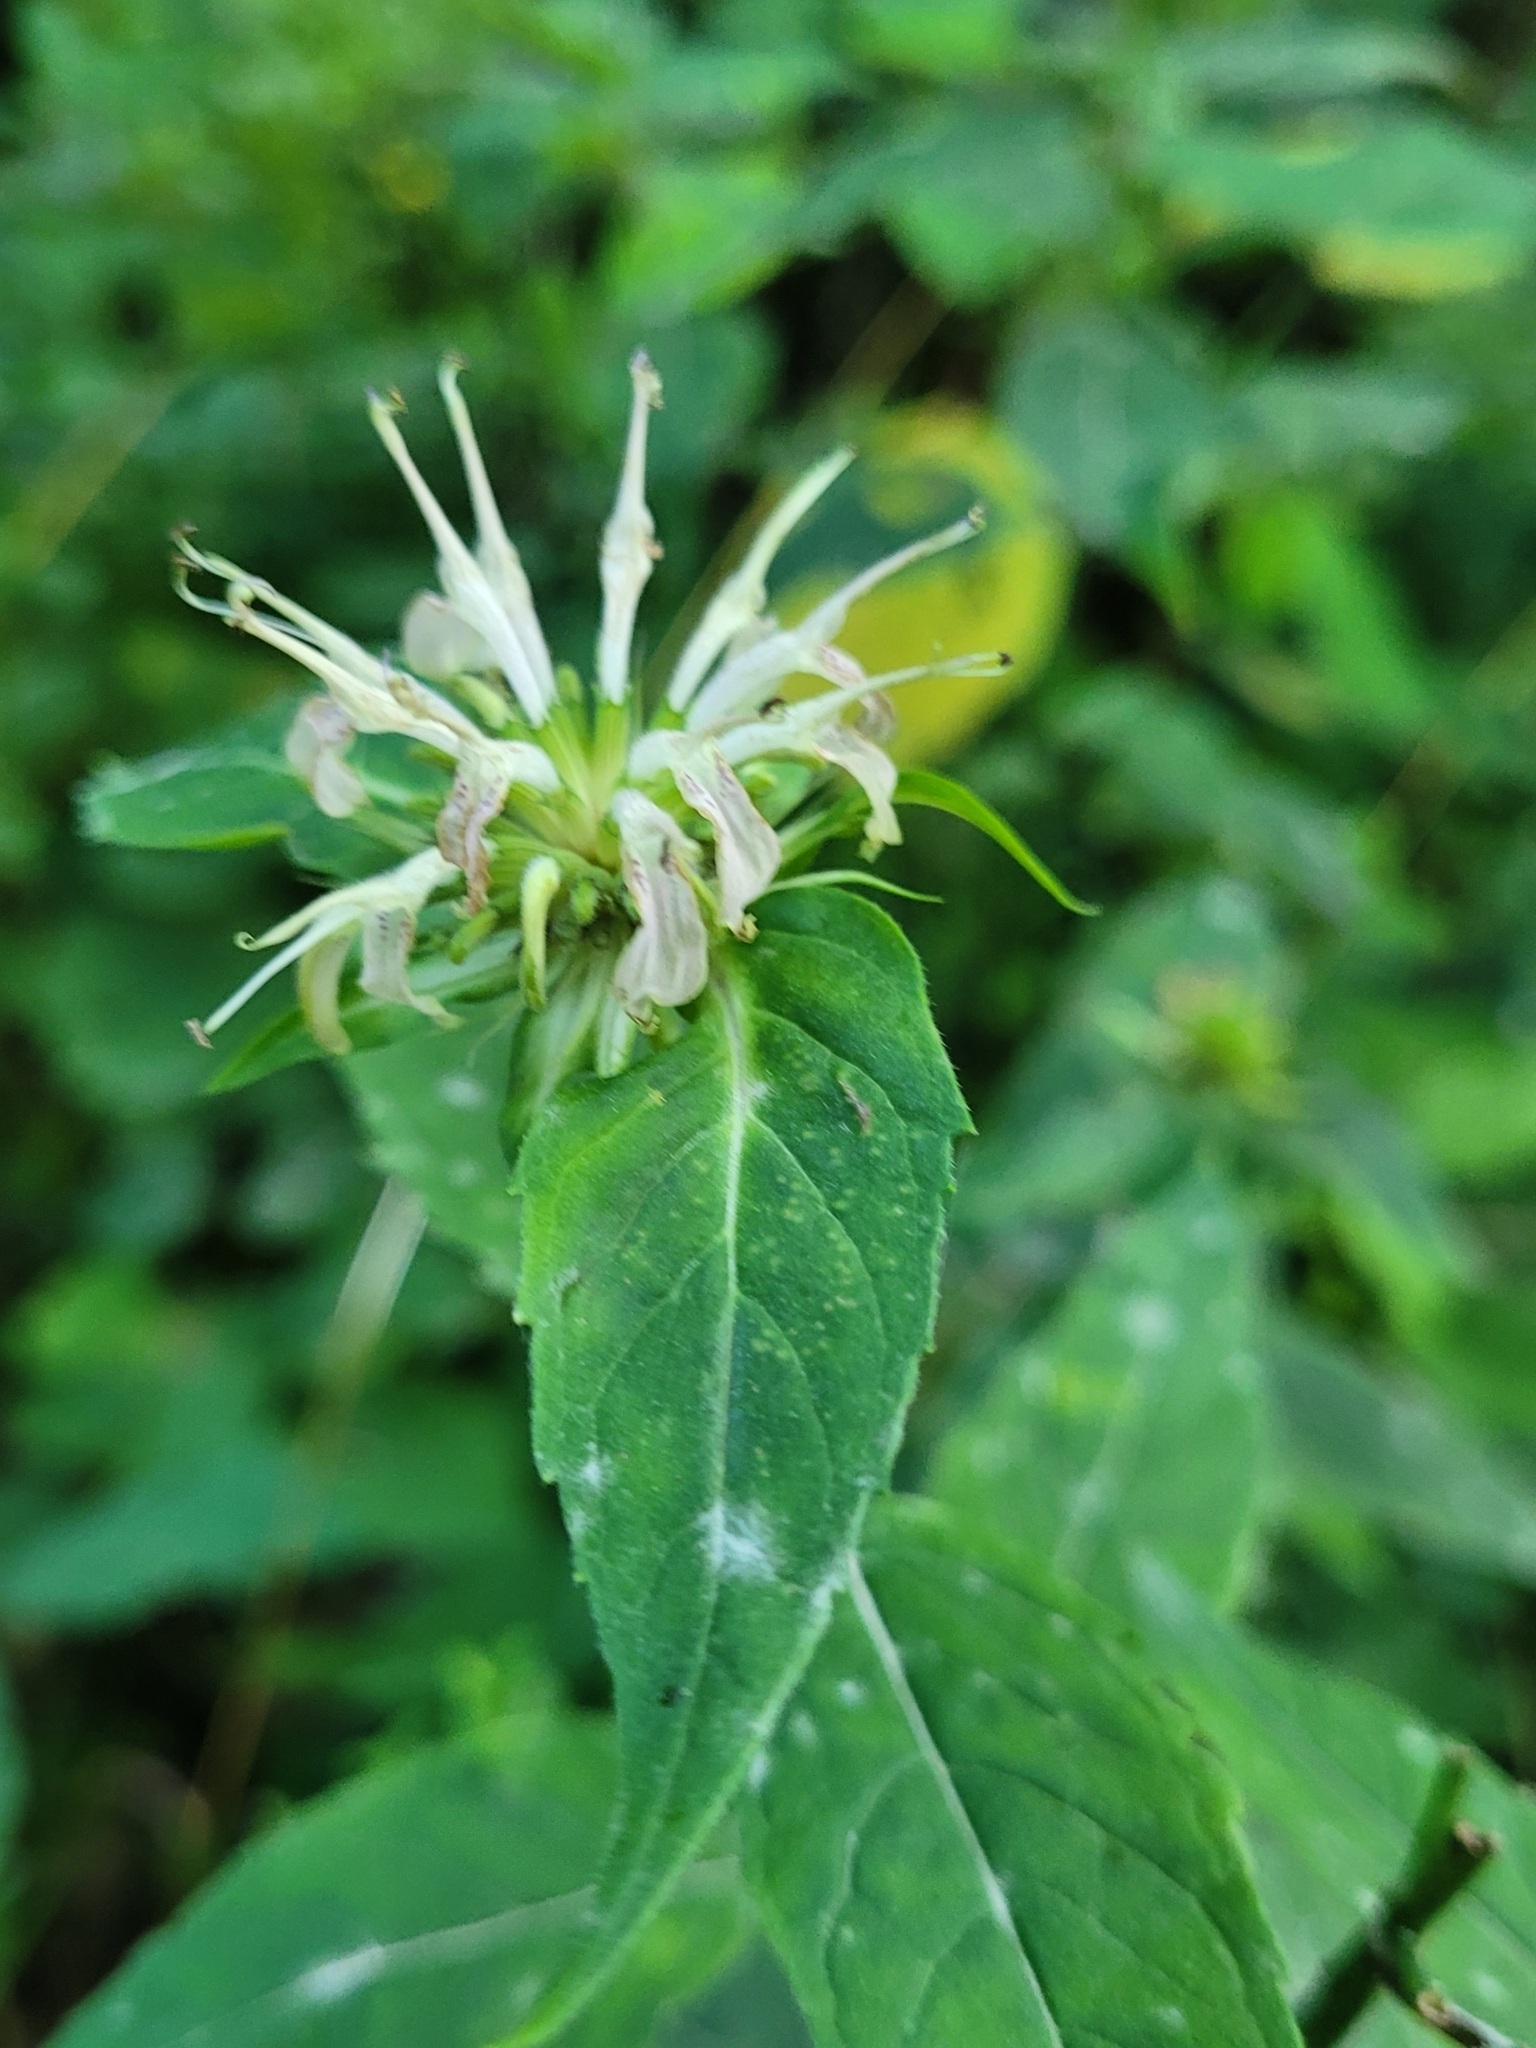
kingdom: Plantae
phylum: Tracheophyta
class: Magnoliopsida
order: Lamiales
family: Lamiaceae
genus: Monarda
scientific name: Monarda clinopodia
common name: Basil beebalm
